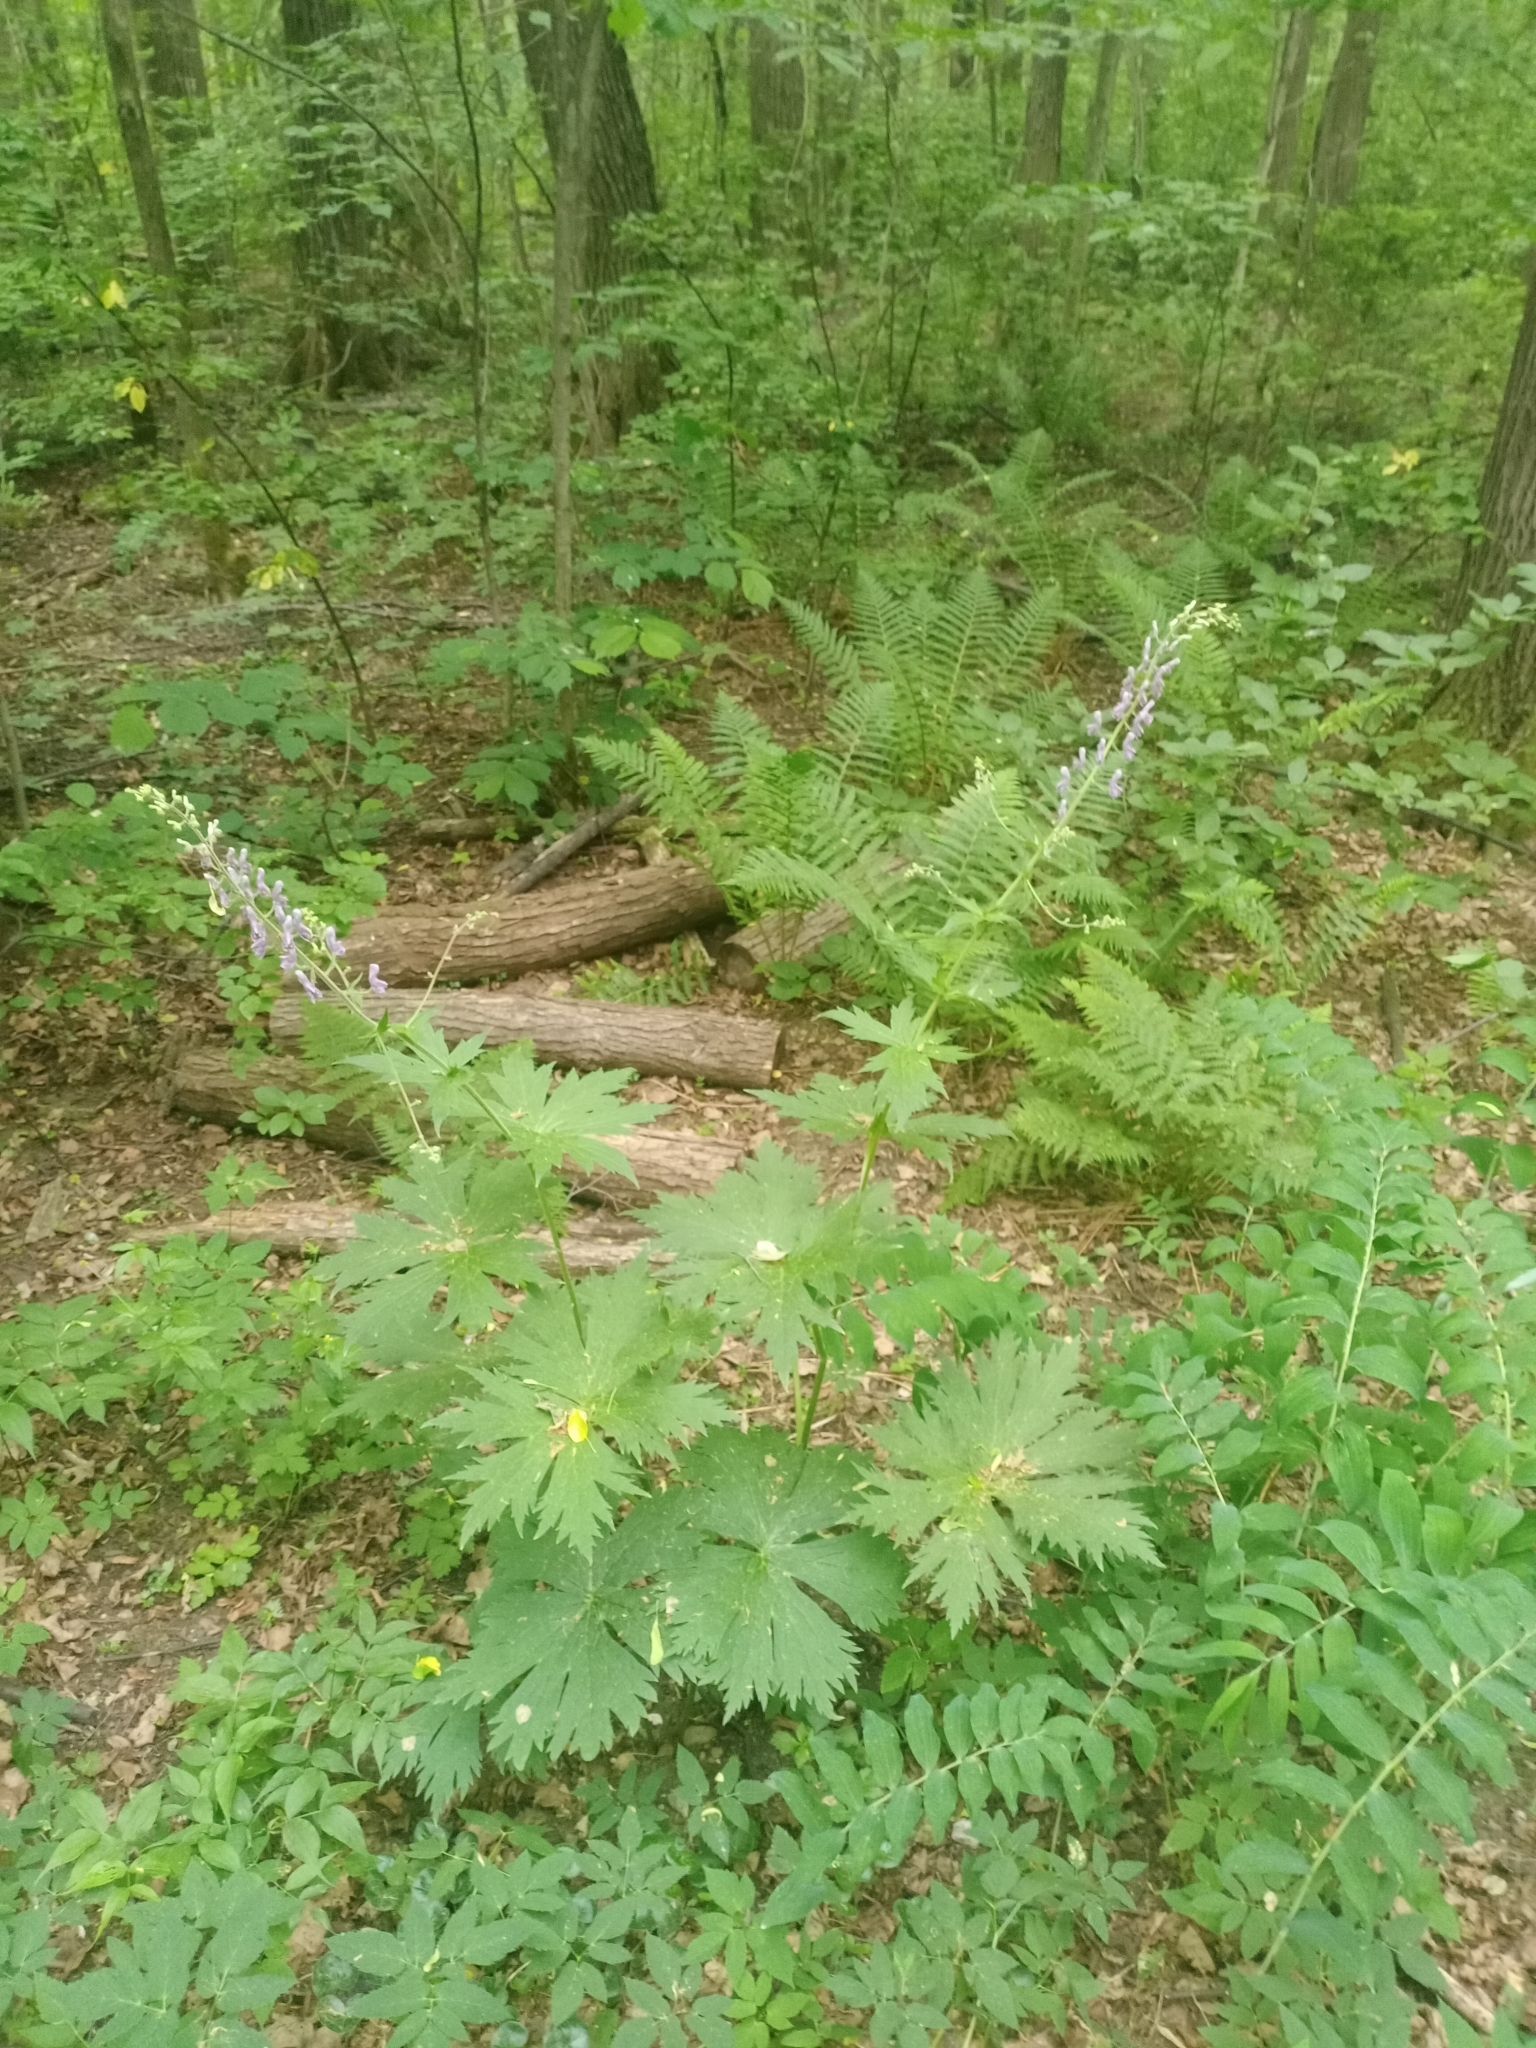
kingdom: Plantae
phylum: Tracheophyta
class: Magnoliopsida
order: Ranunculales
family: Ranunculaceae
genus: Aconitum
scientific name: Aconitum septentrionale
